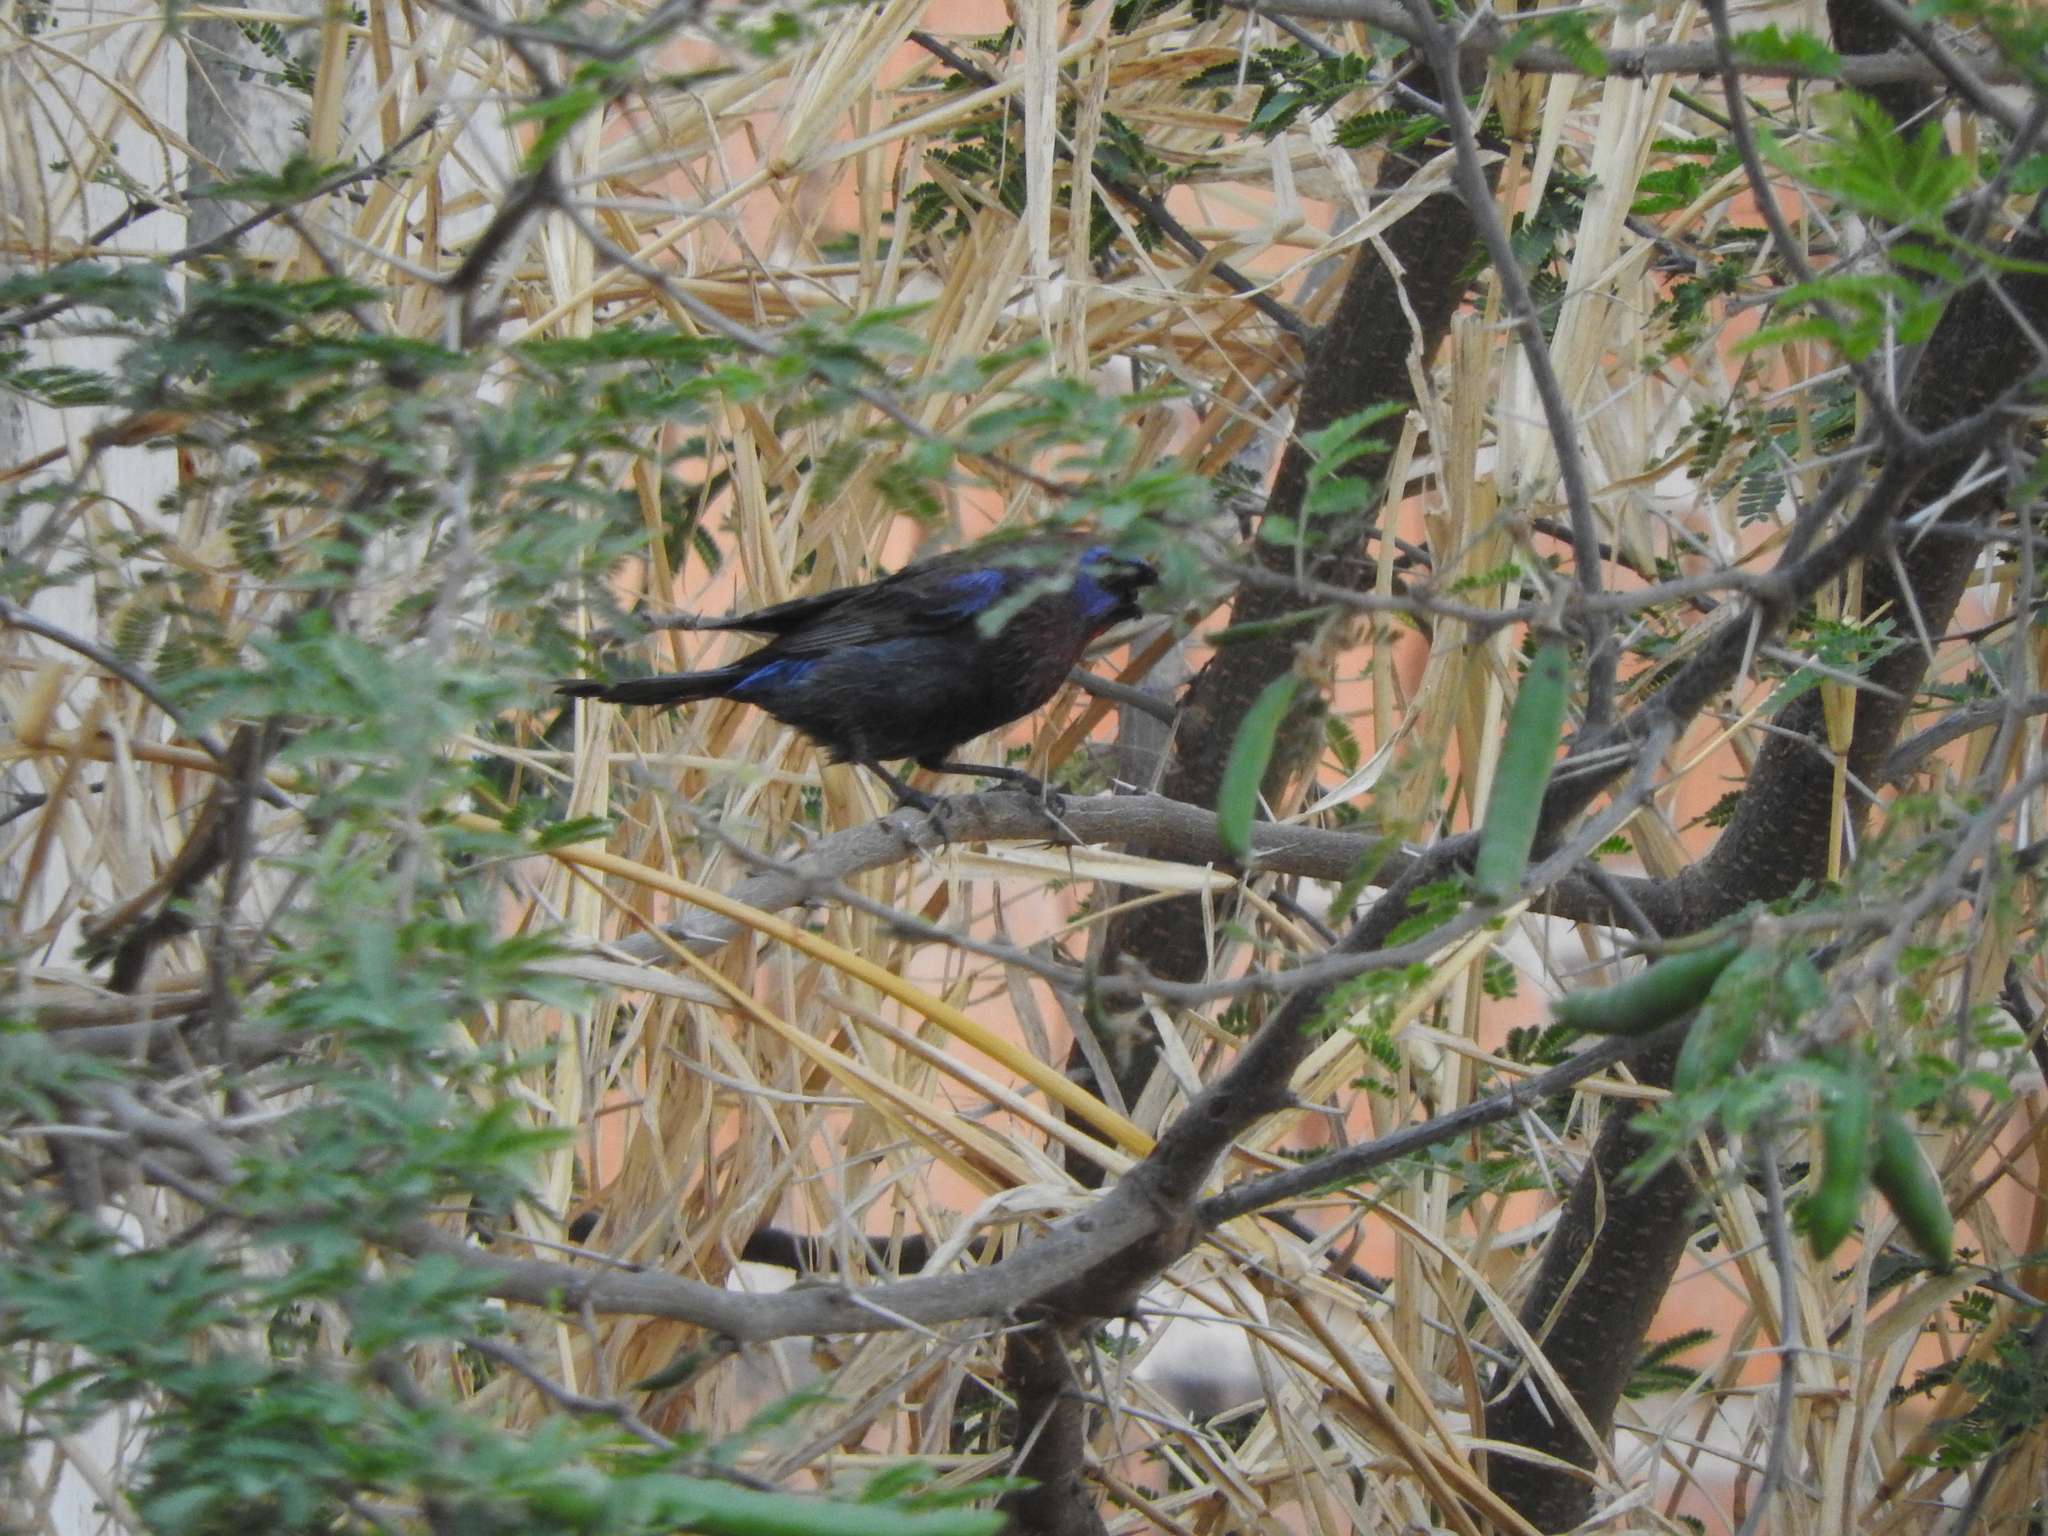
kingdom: Animalia
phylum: Chordata
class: Aves
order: Passeriformes
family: Cardinalidae
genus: Passerina
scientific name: Passerina versicolor
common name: Varied bunting
